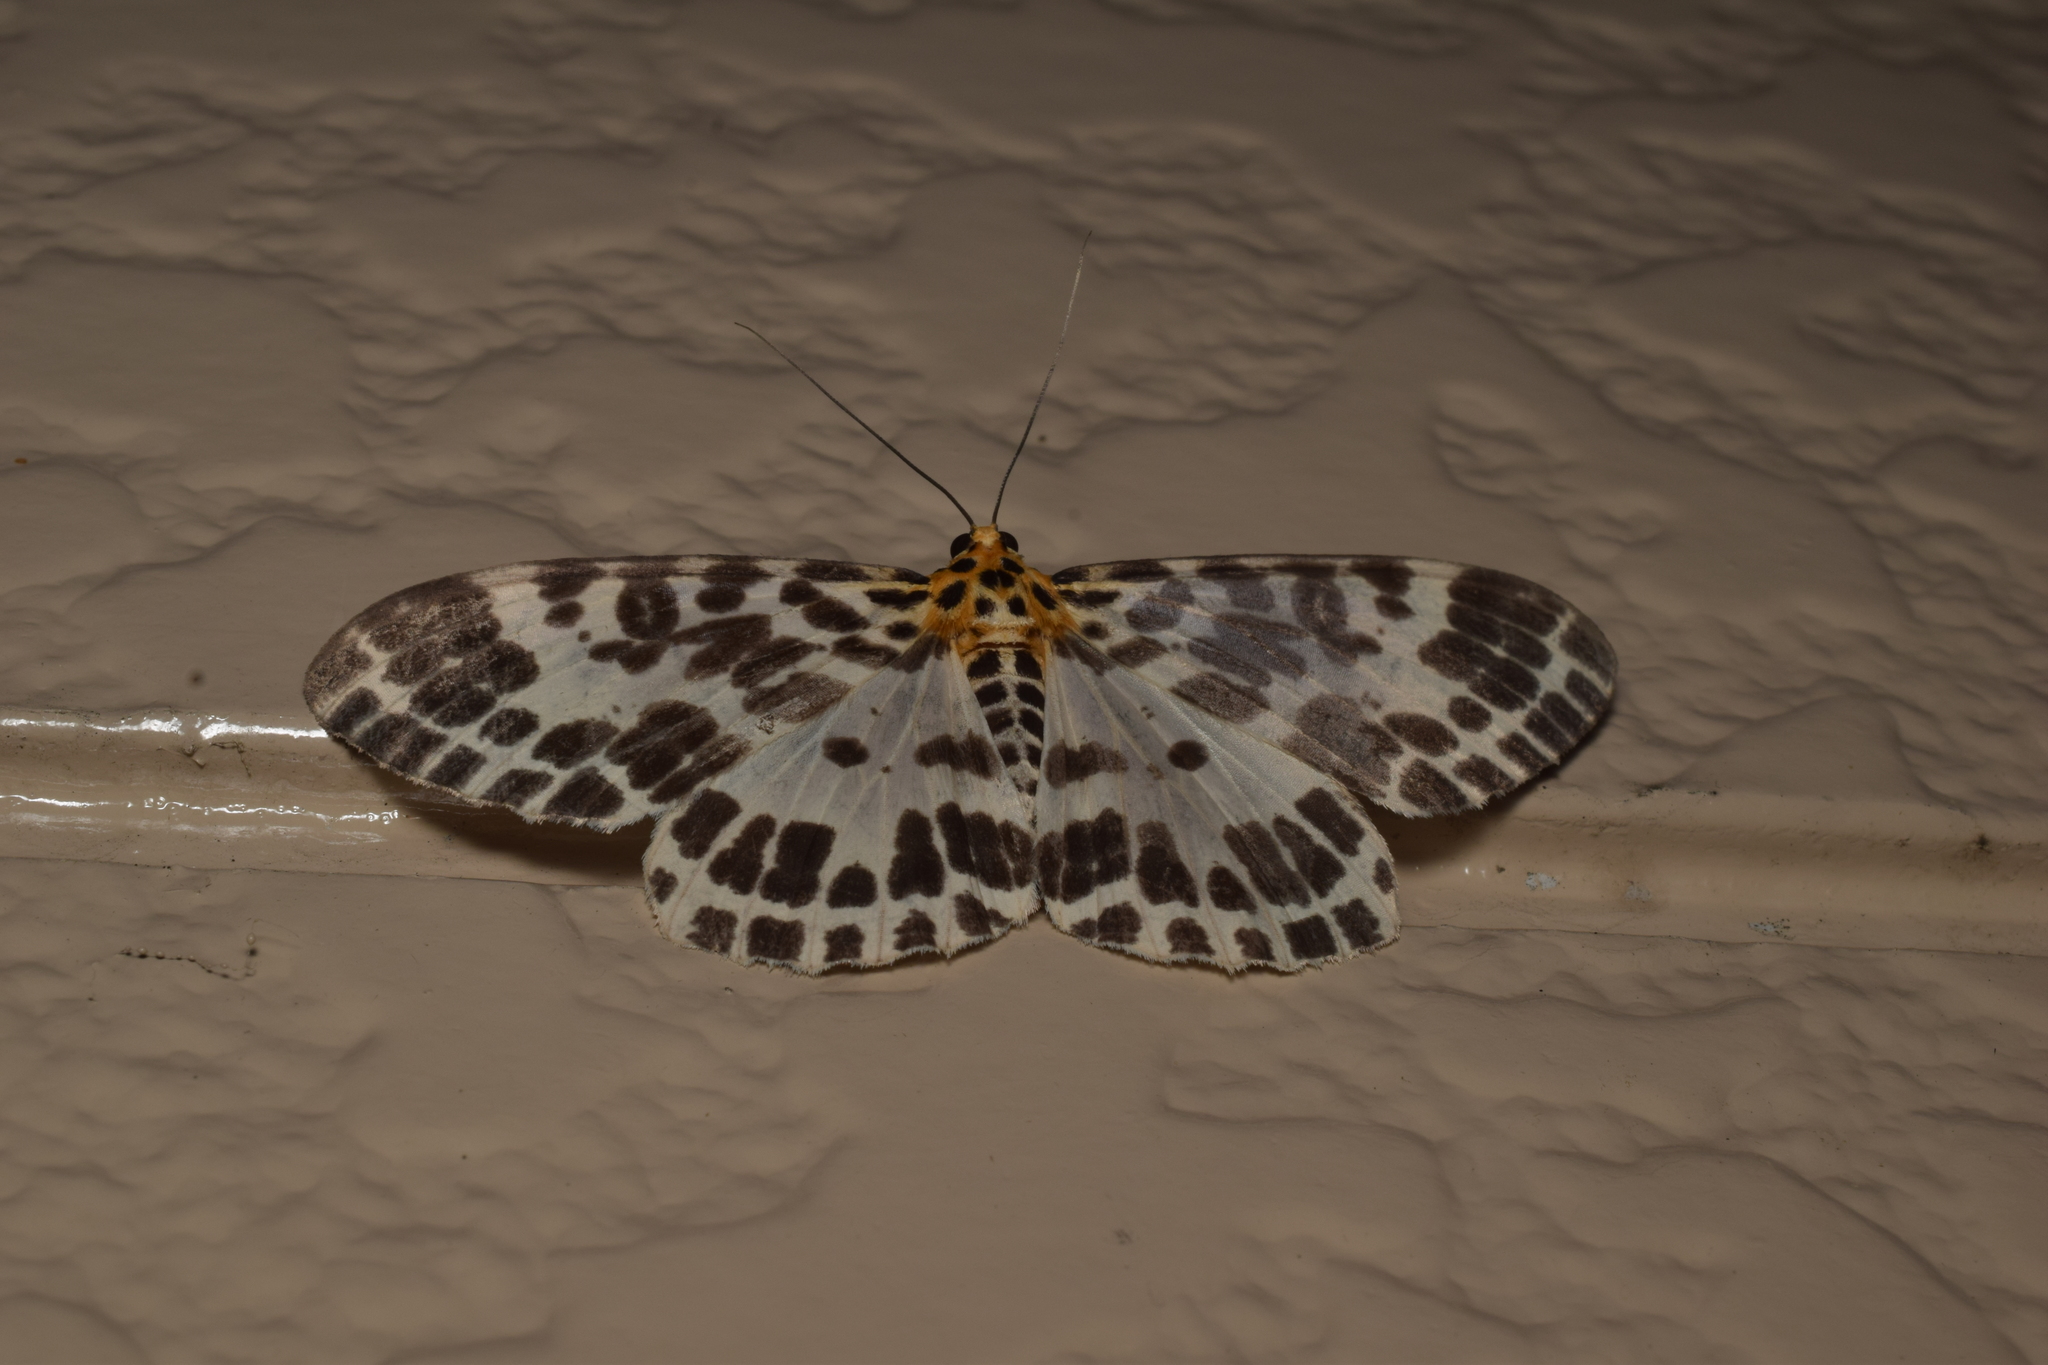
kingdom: Animalia
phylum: Arthropoda
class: Insecta
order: Lepidoptera
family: Geometridae
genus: Pogonopygia
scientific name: Pogonopygia nigralbata
